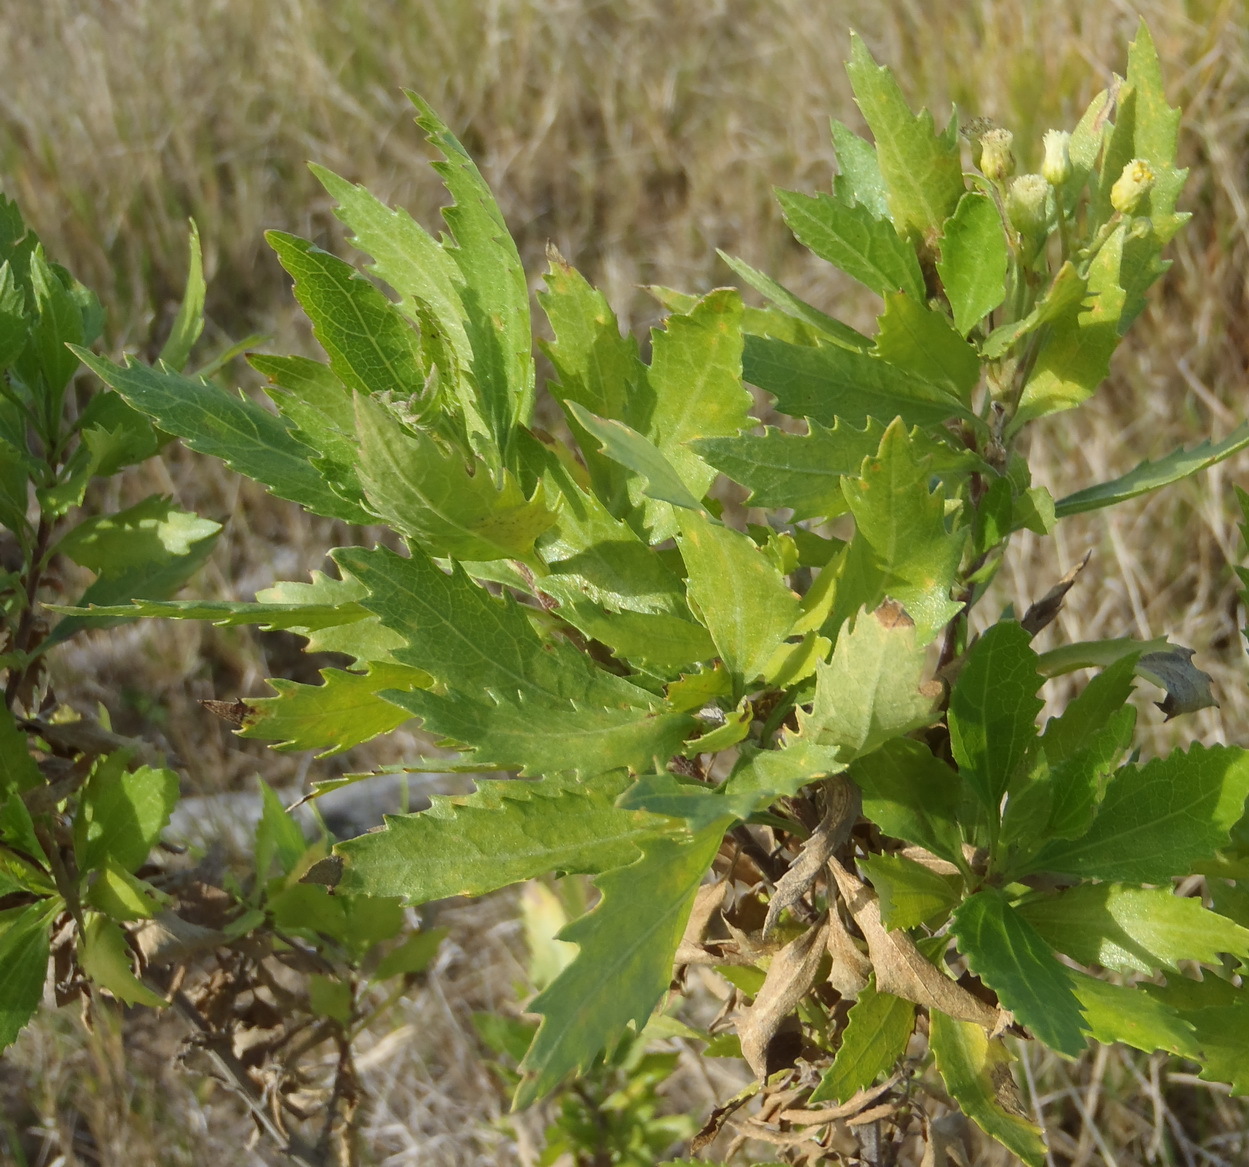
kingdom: Plantae
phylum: Tracheophyta
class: Magnoliopsida
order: Asterales
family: Asteraceae
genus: Nidorella
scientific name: Nidorella ivifolia
